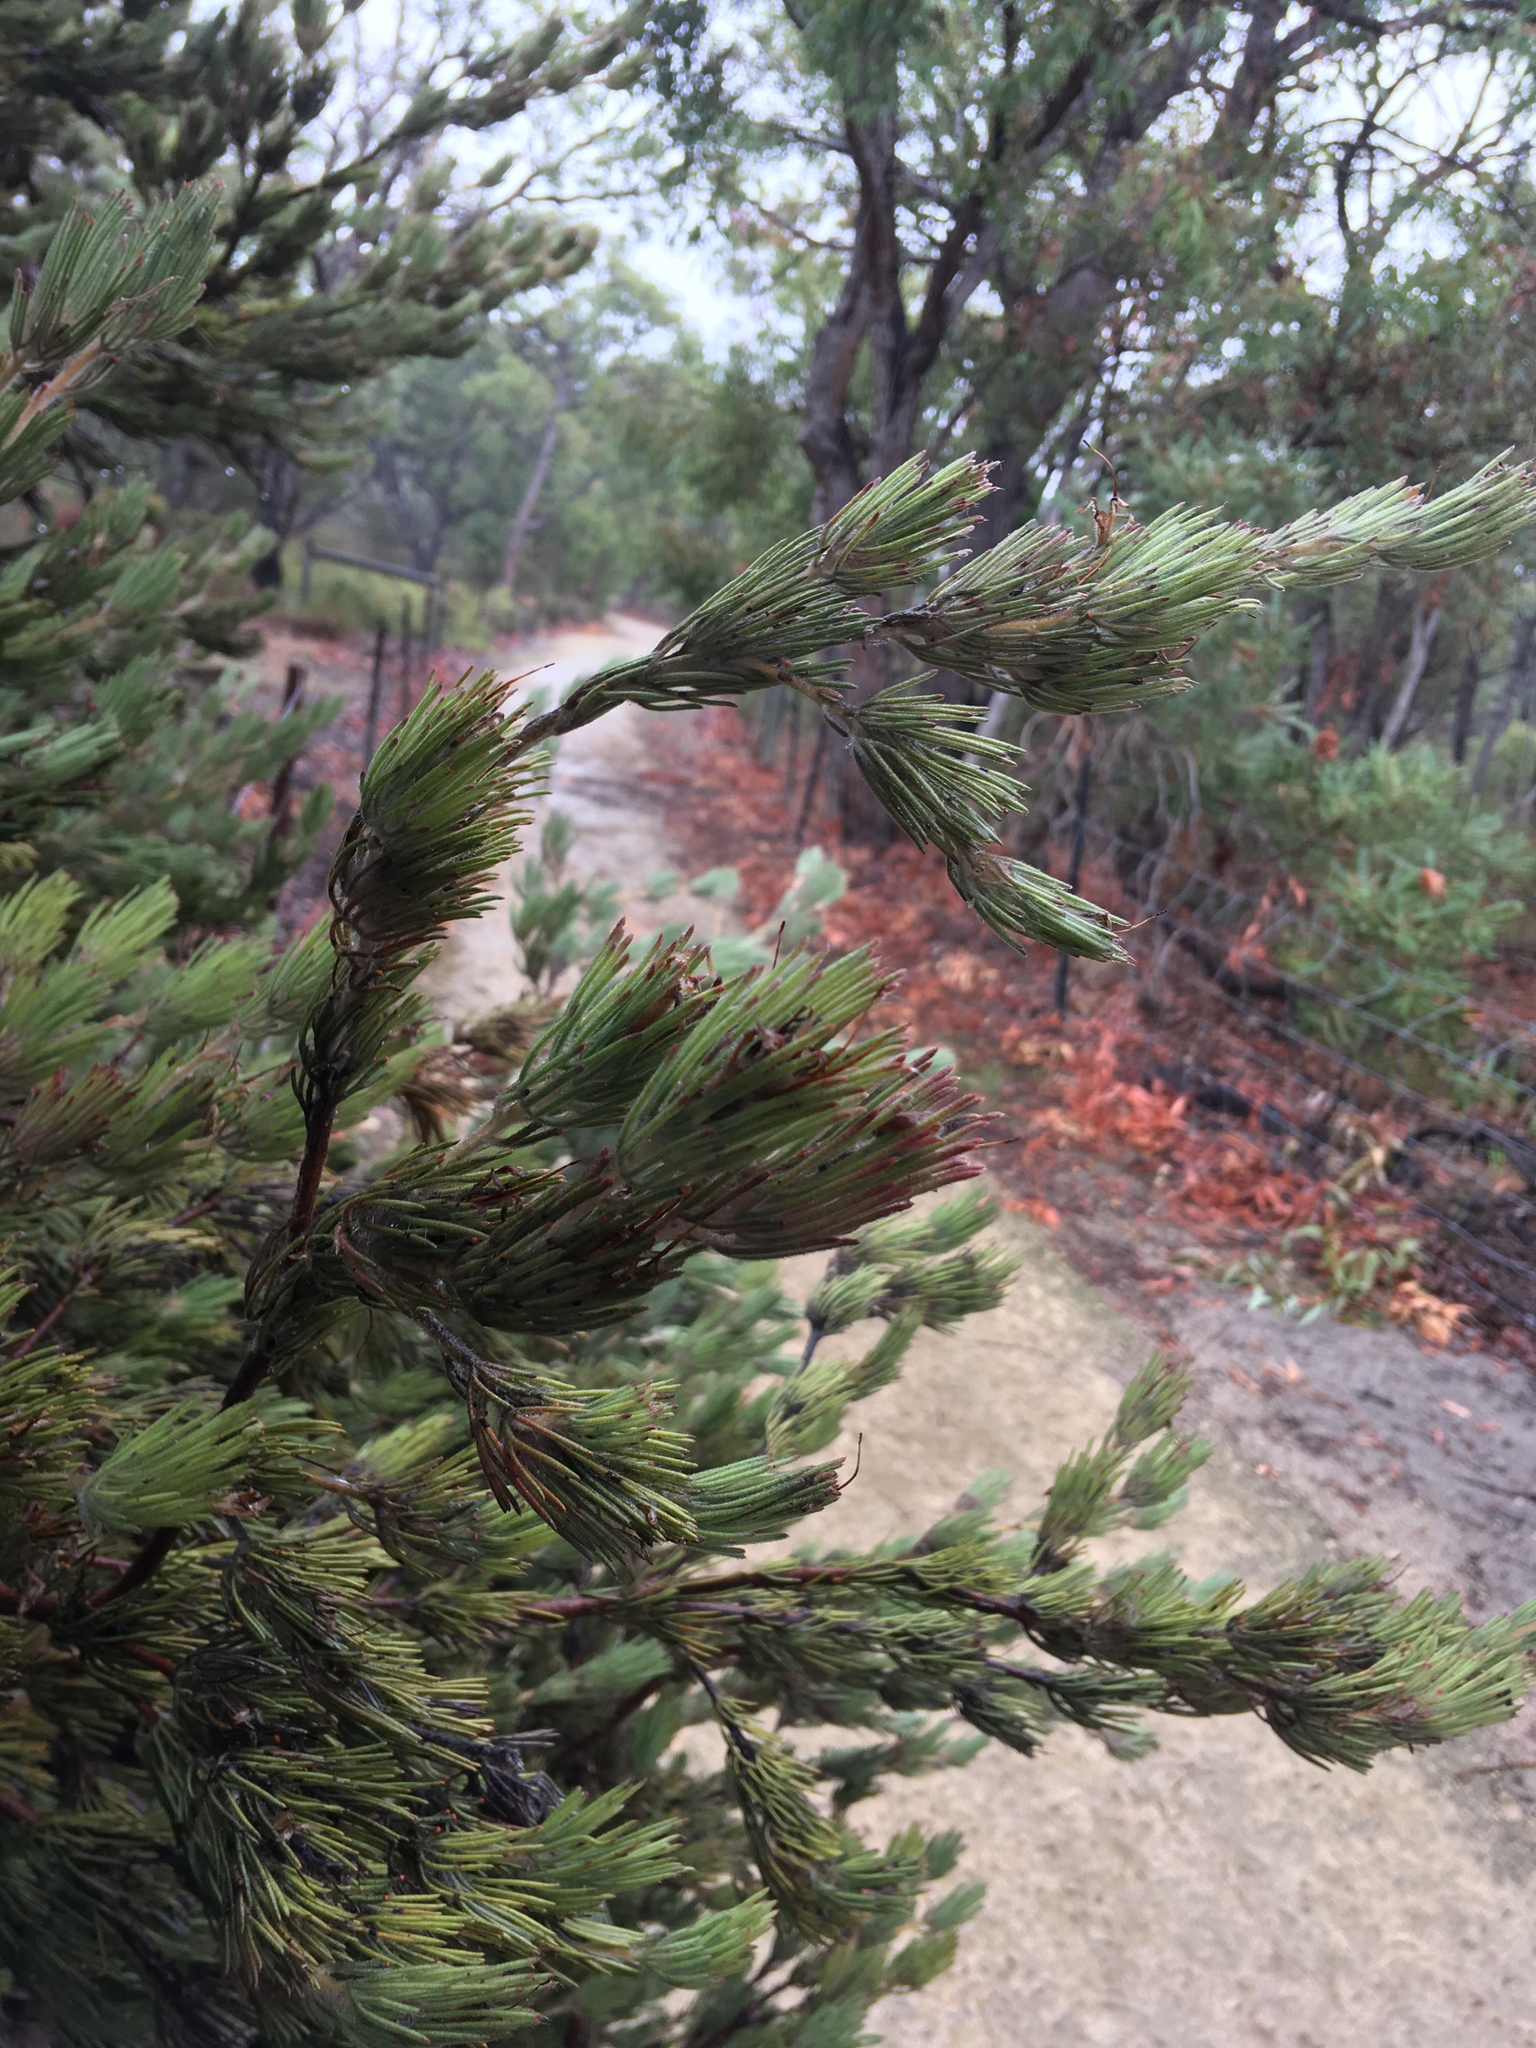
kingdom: Plantae
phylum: Tracheophyta
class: Magnoliopsida
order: Proteales
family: Proteaceae
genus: Adenanthos
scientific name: Adenanthos cygnorum
